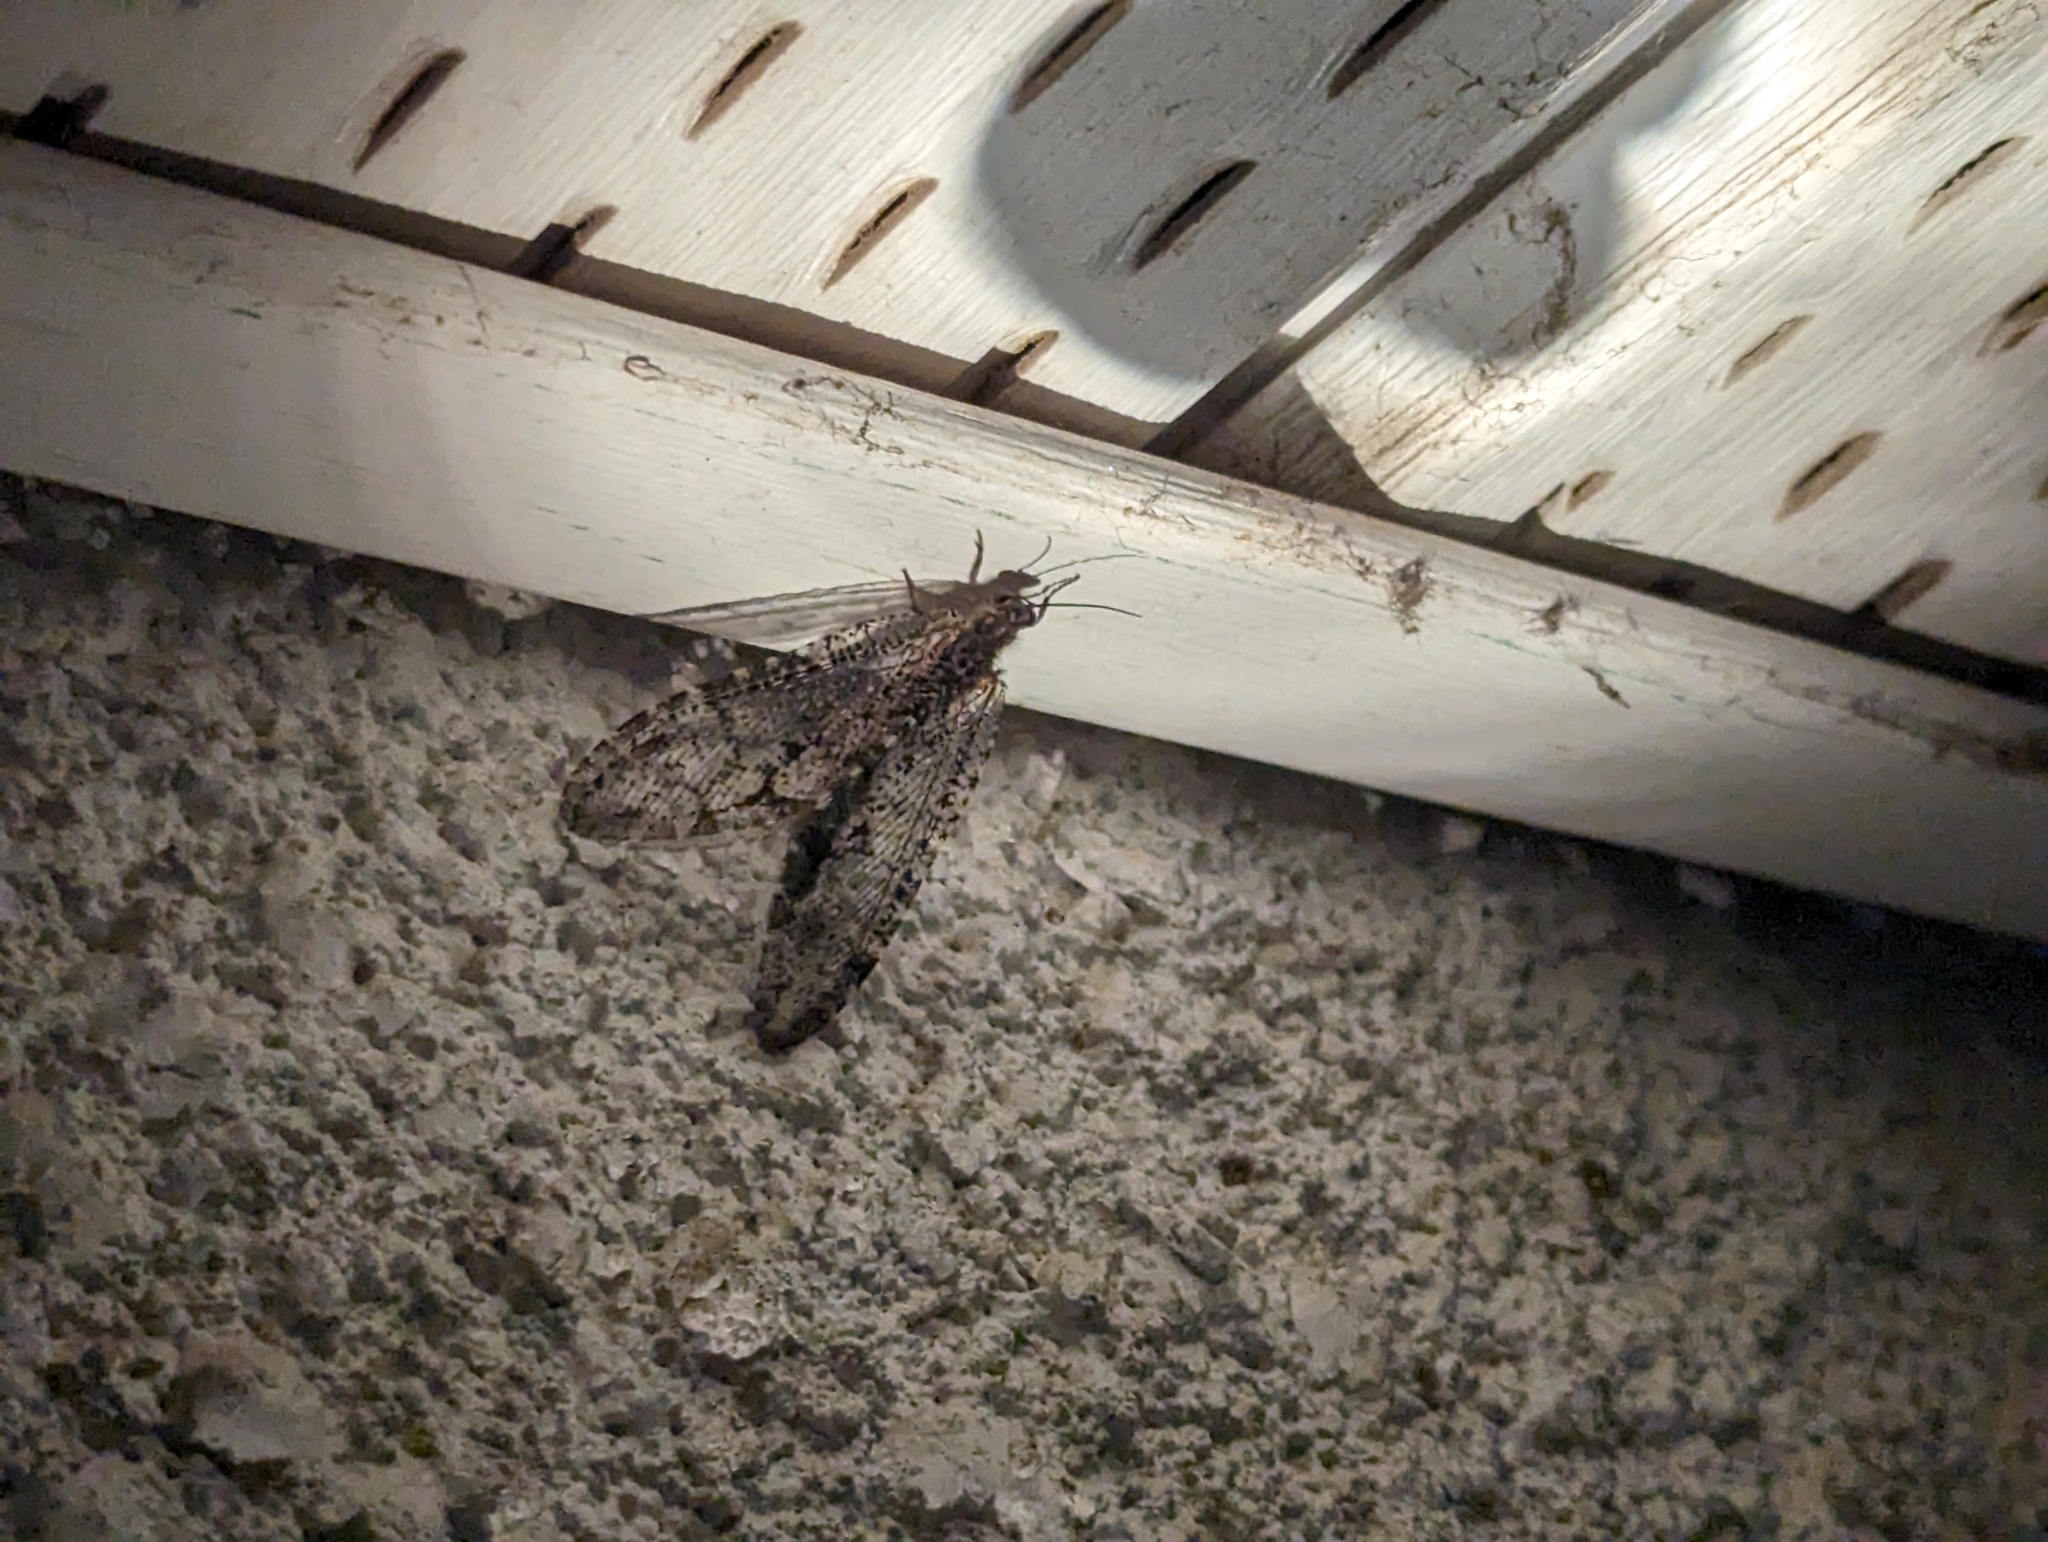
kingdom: Animalia
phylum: Arthropoda
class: Insecta
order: Neuroptera
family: Ithonidae
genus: Polystoechotes
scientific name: Polystoechotes punctata
